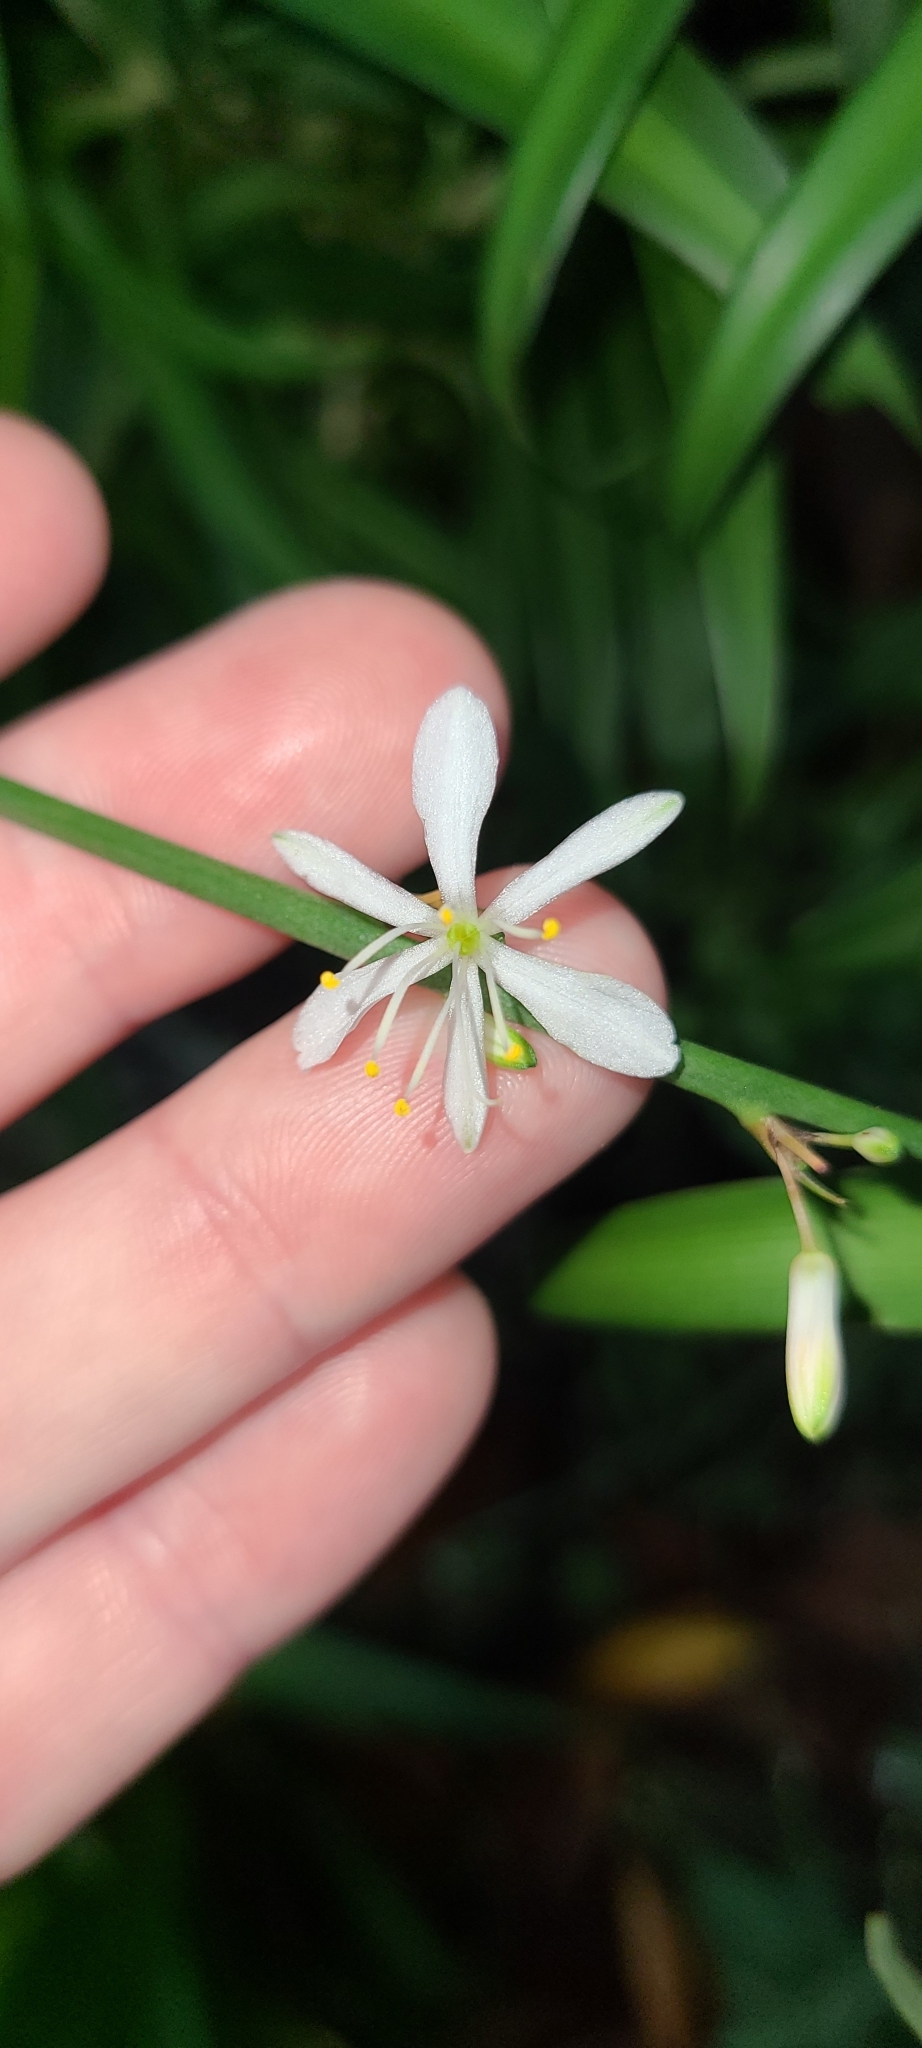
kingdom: Plantae
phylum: Tracheophyta
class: Liliopsida
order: Asparagales
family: Asparagaceae
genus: Chlorophytum
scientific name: Chlorophytum comosum
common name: Spider plant
